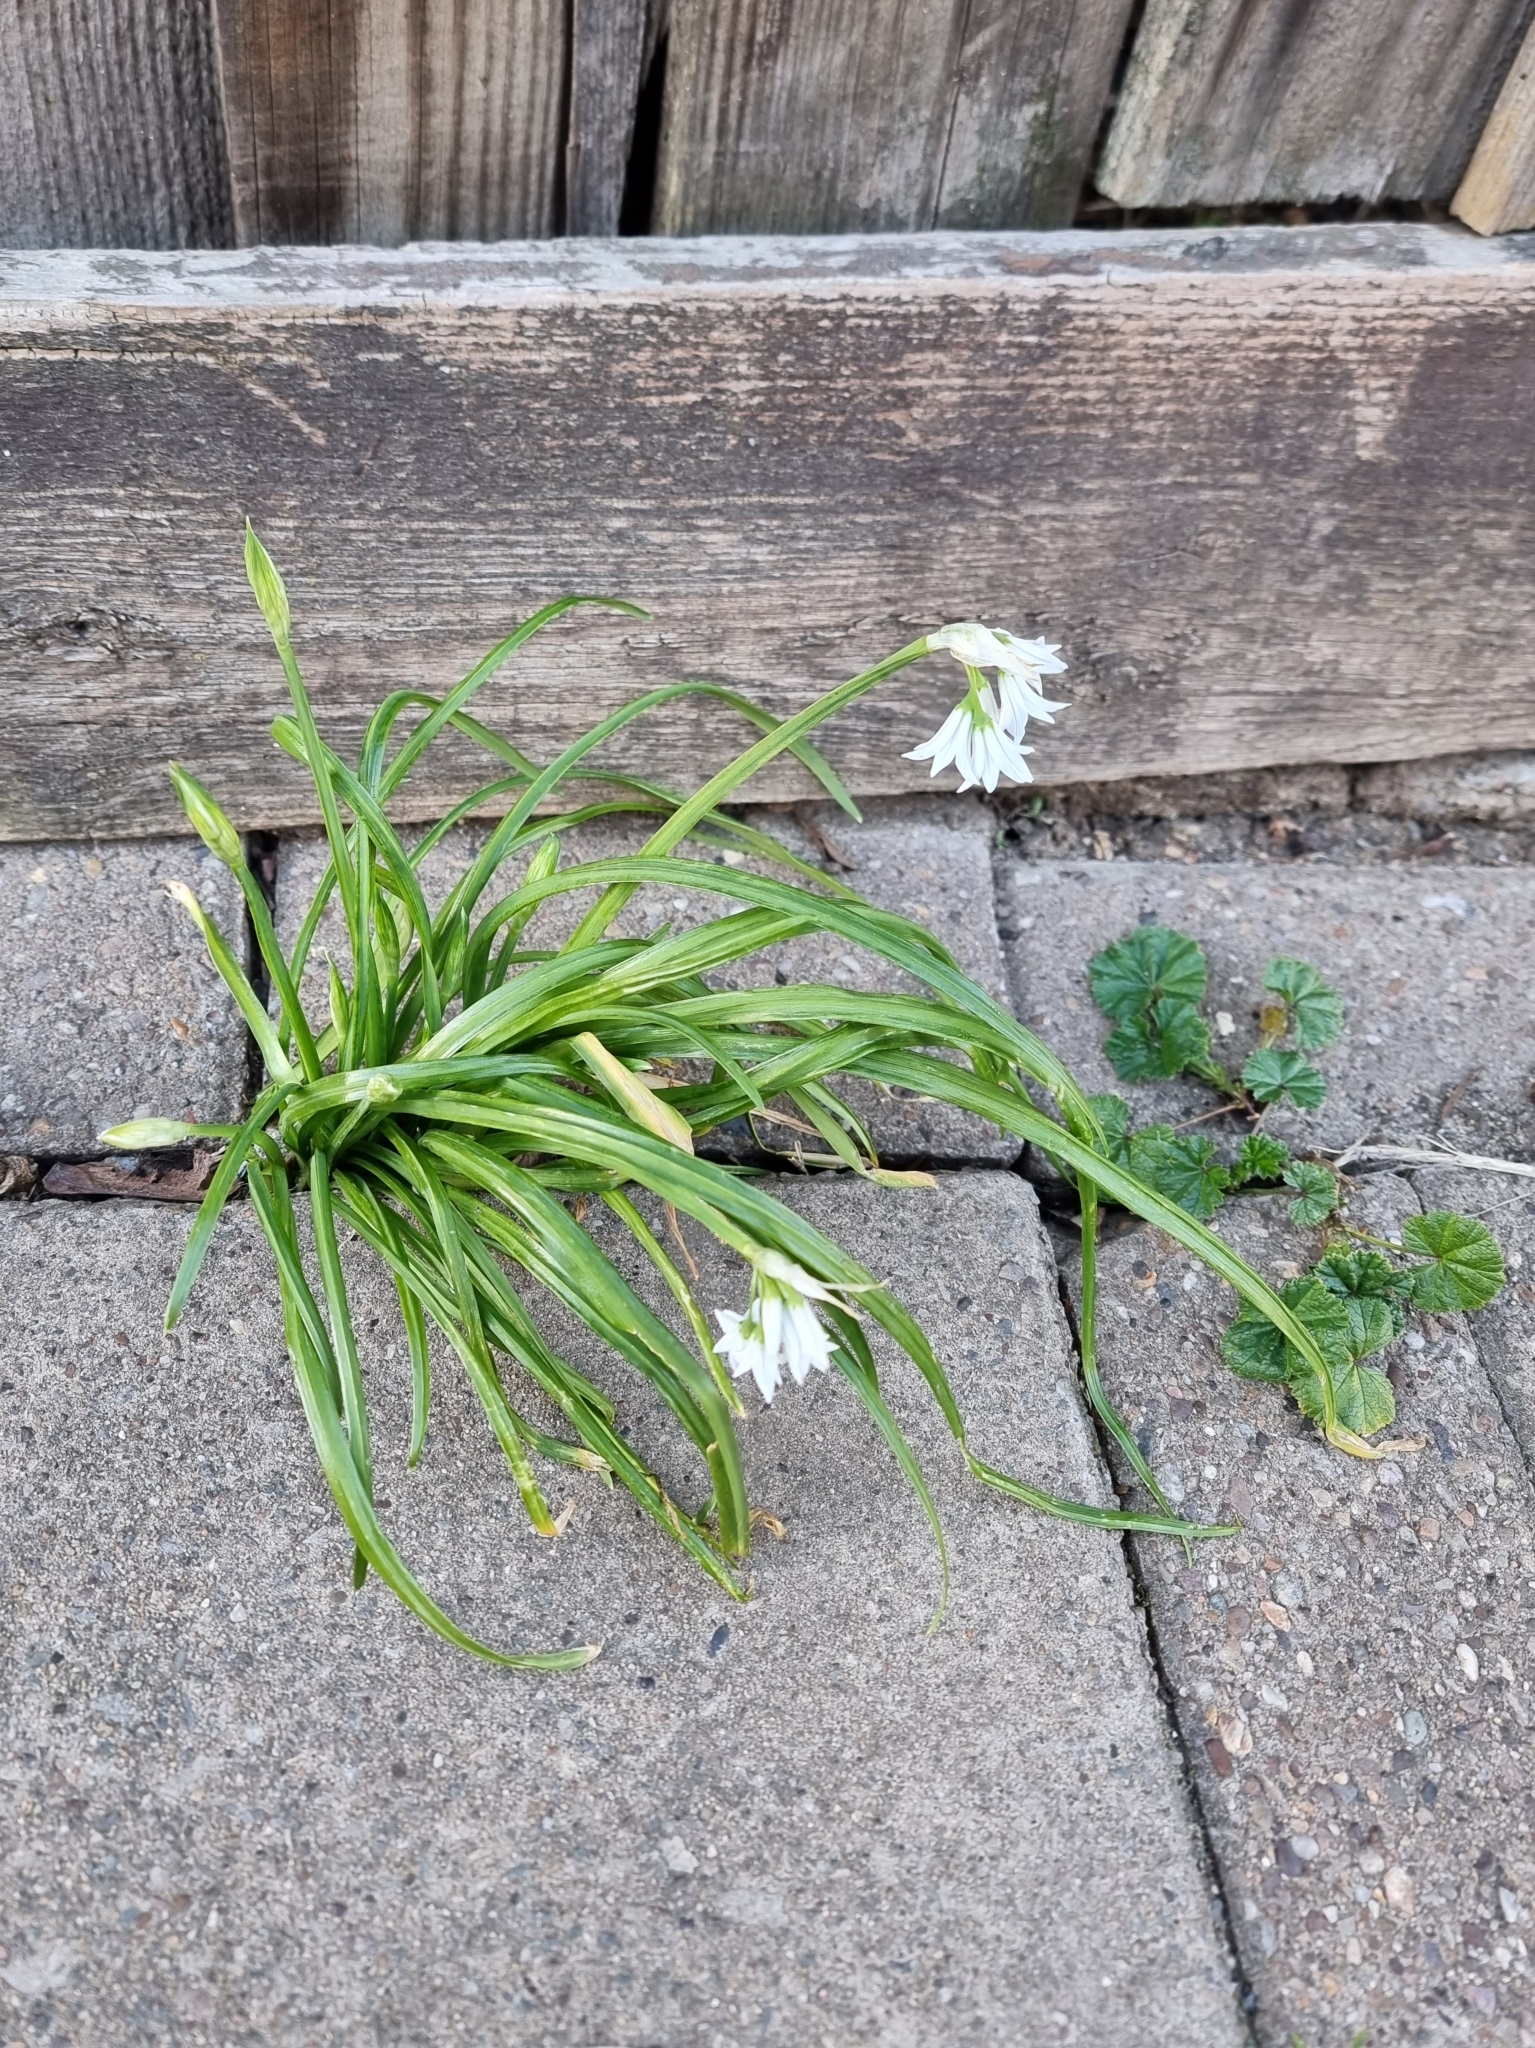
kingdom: Plantae
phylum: Tracheophyta
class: Liliopsida
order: Asparagales
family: Amaryllidaceae
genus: Allium
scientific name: Allium triquetrum
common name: Three-cornered garlic
